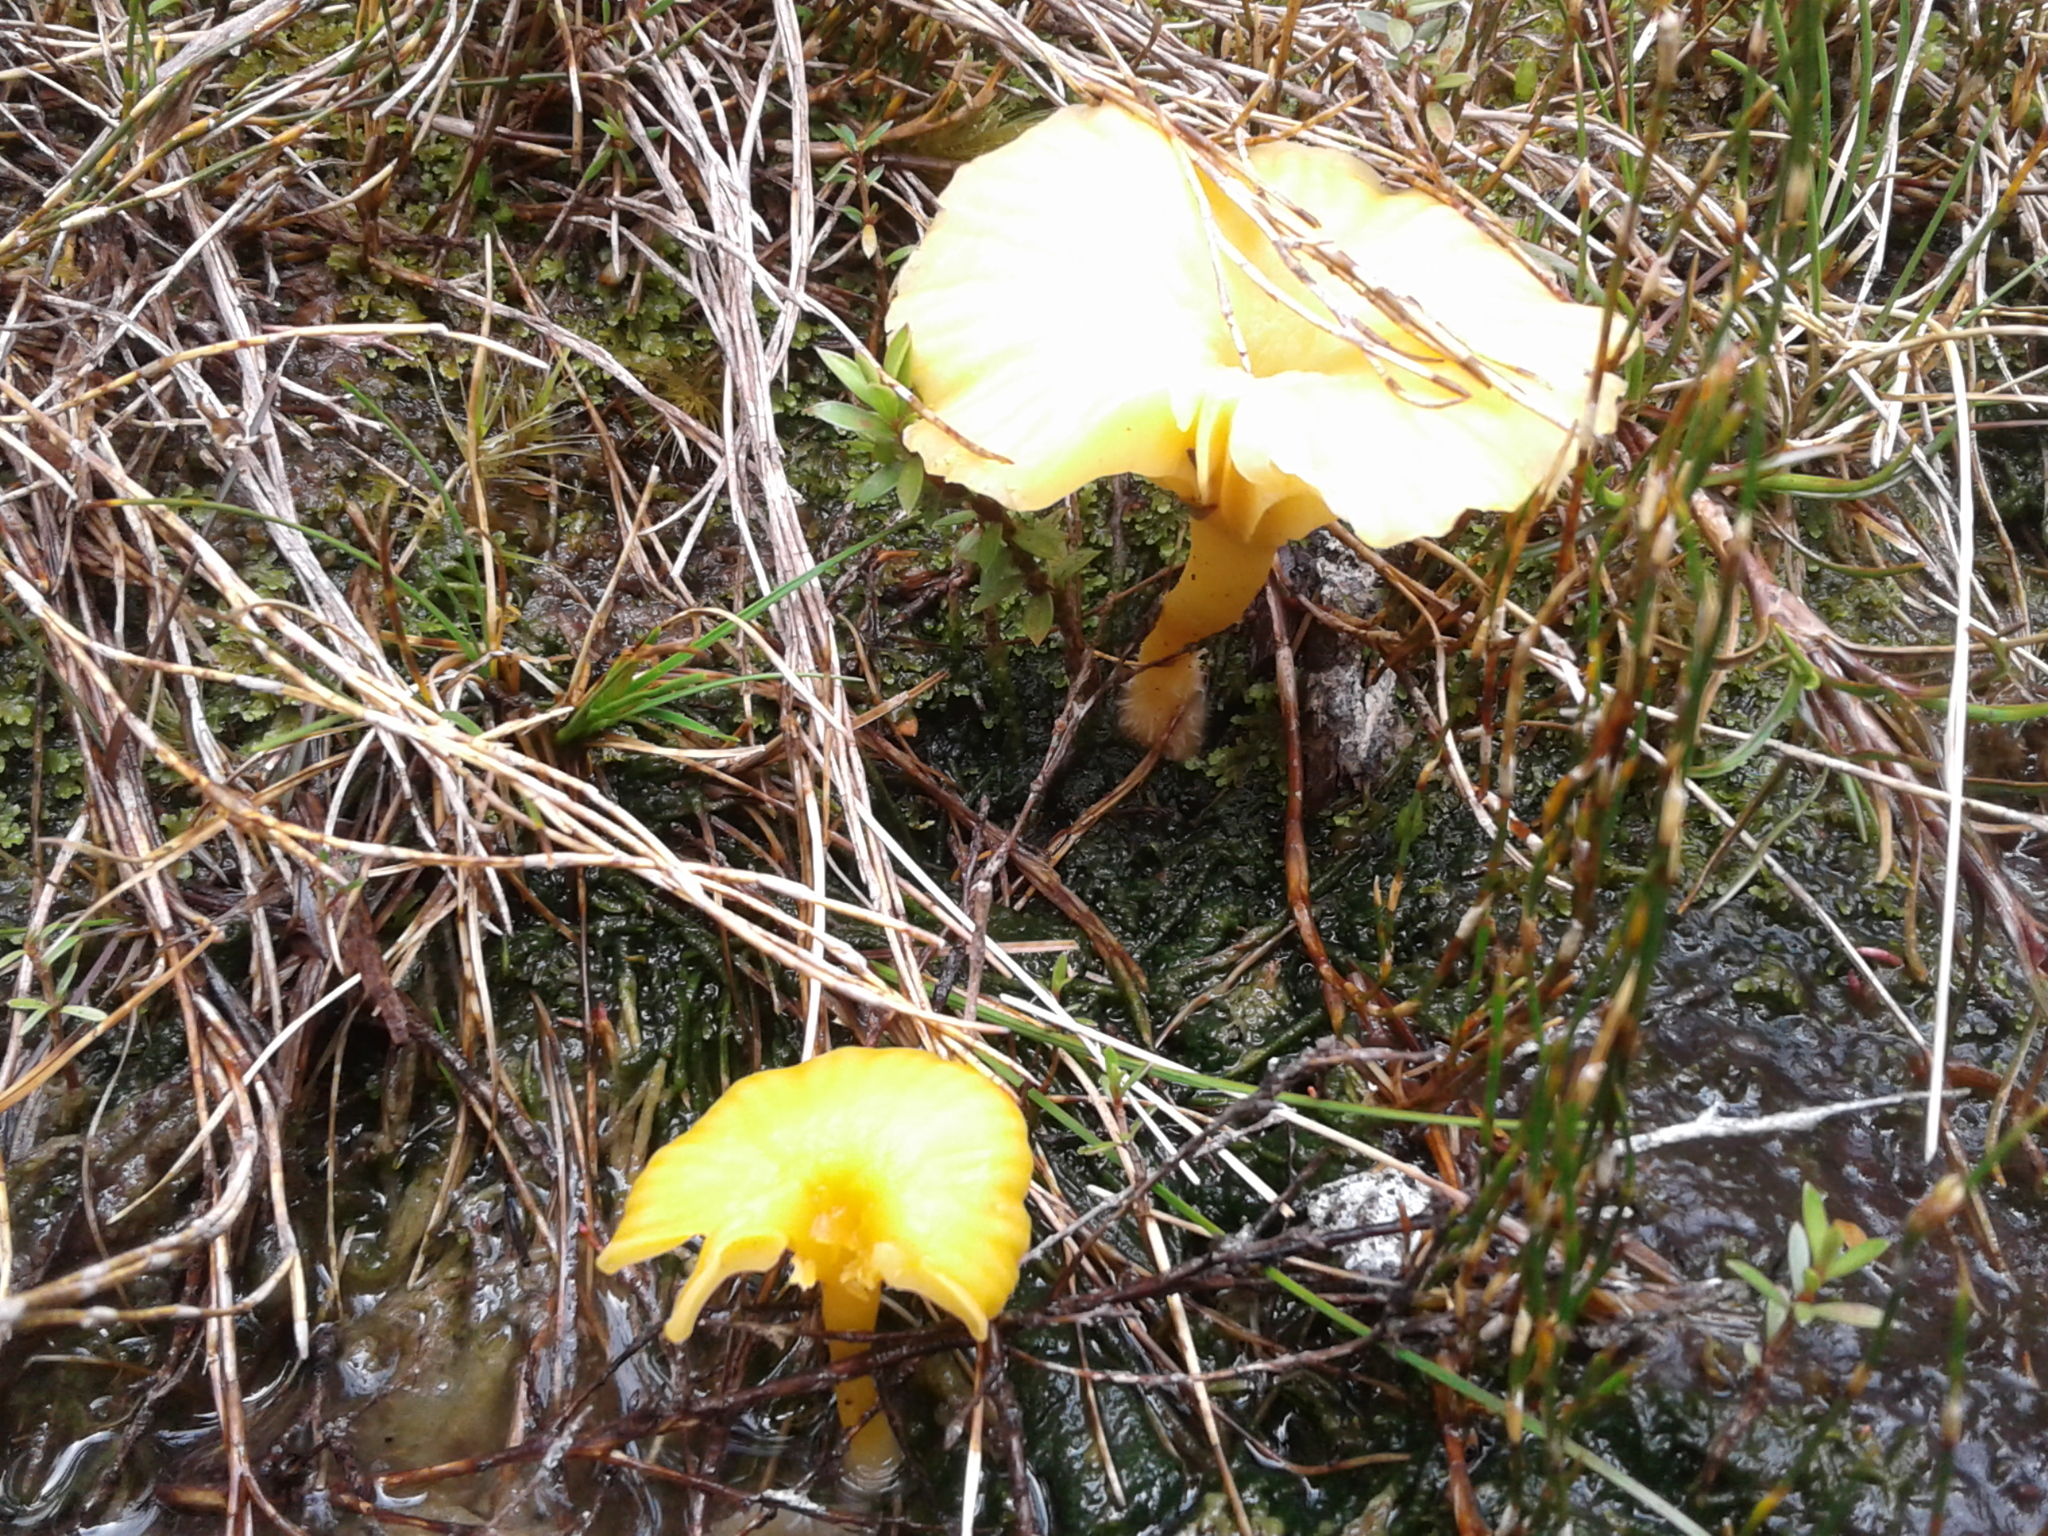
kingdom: Fungi
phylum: Basidiomycota
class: Agaricomycetes
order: Agaricales
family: Hygrophoraceae
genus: Lichenomphalia
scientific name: Lichenomphalia
